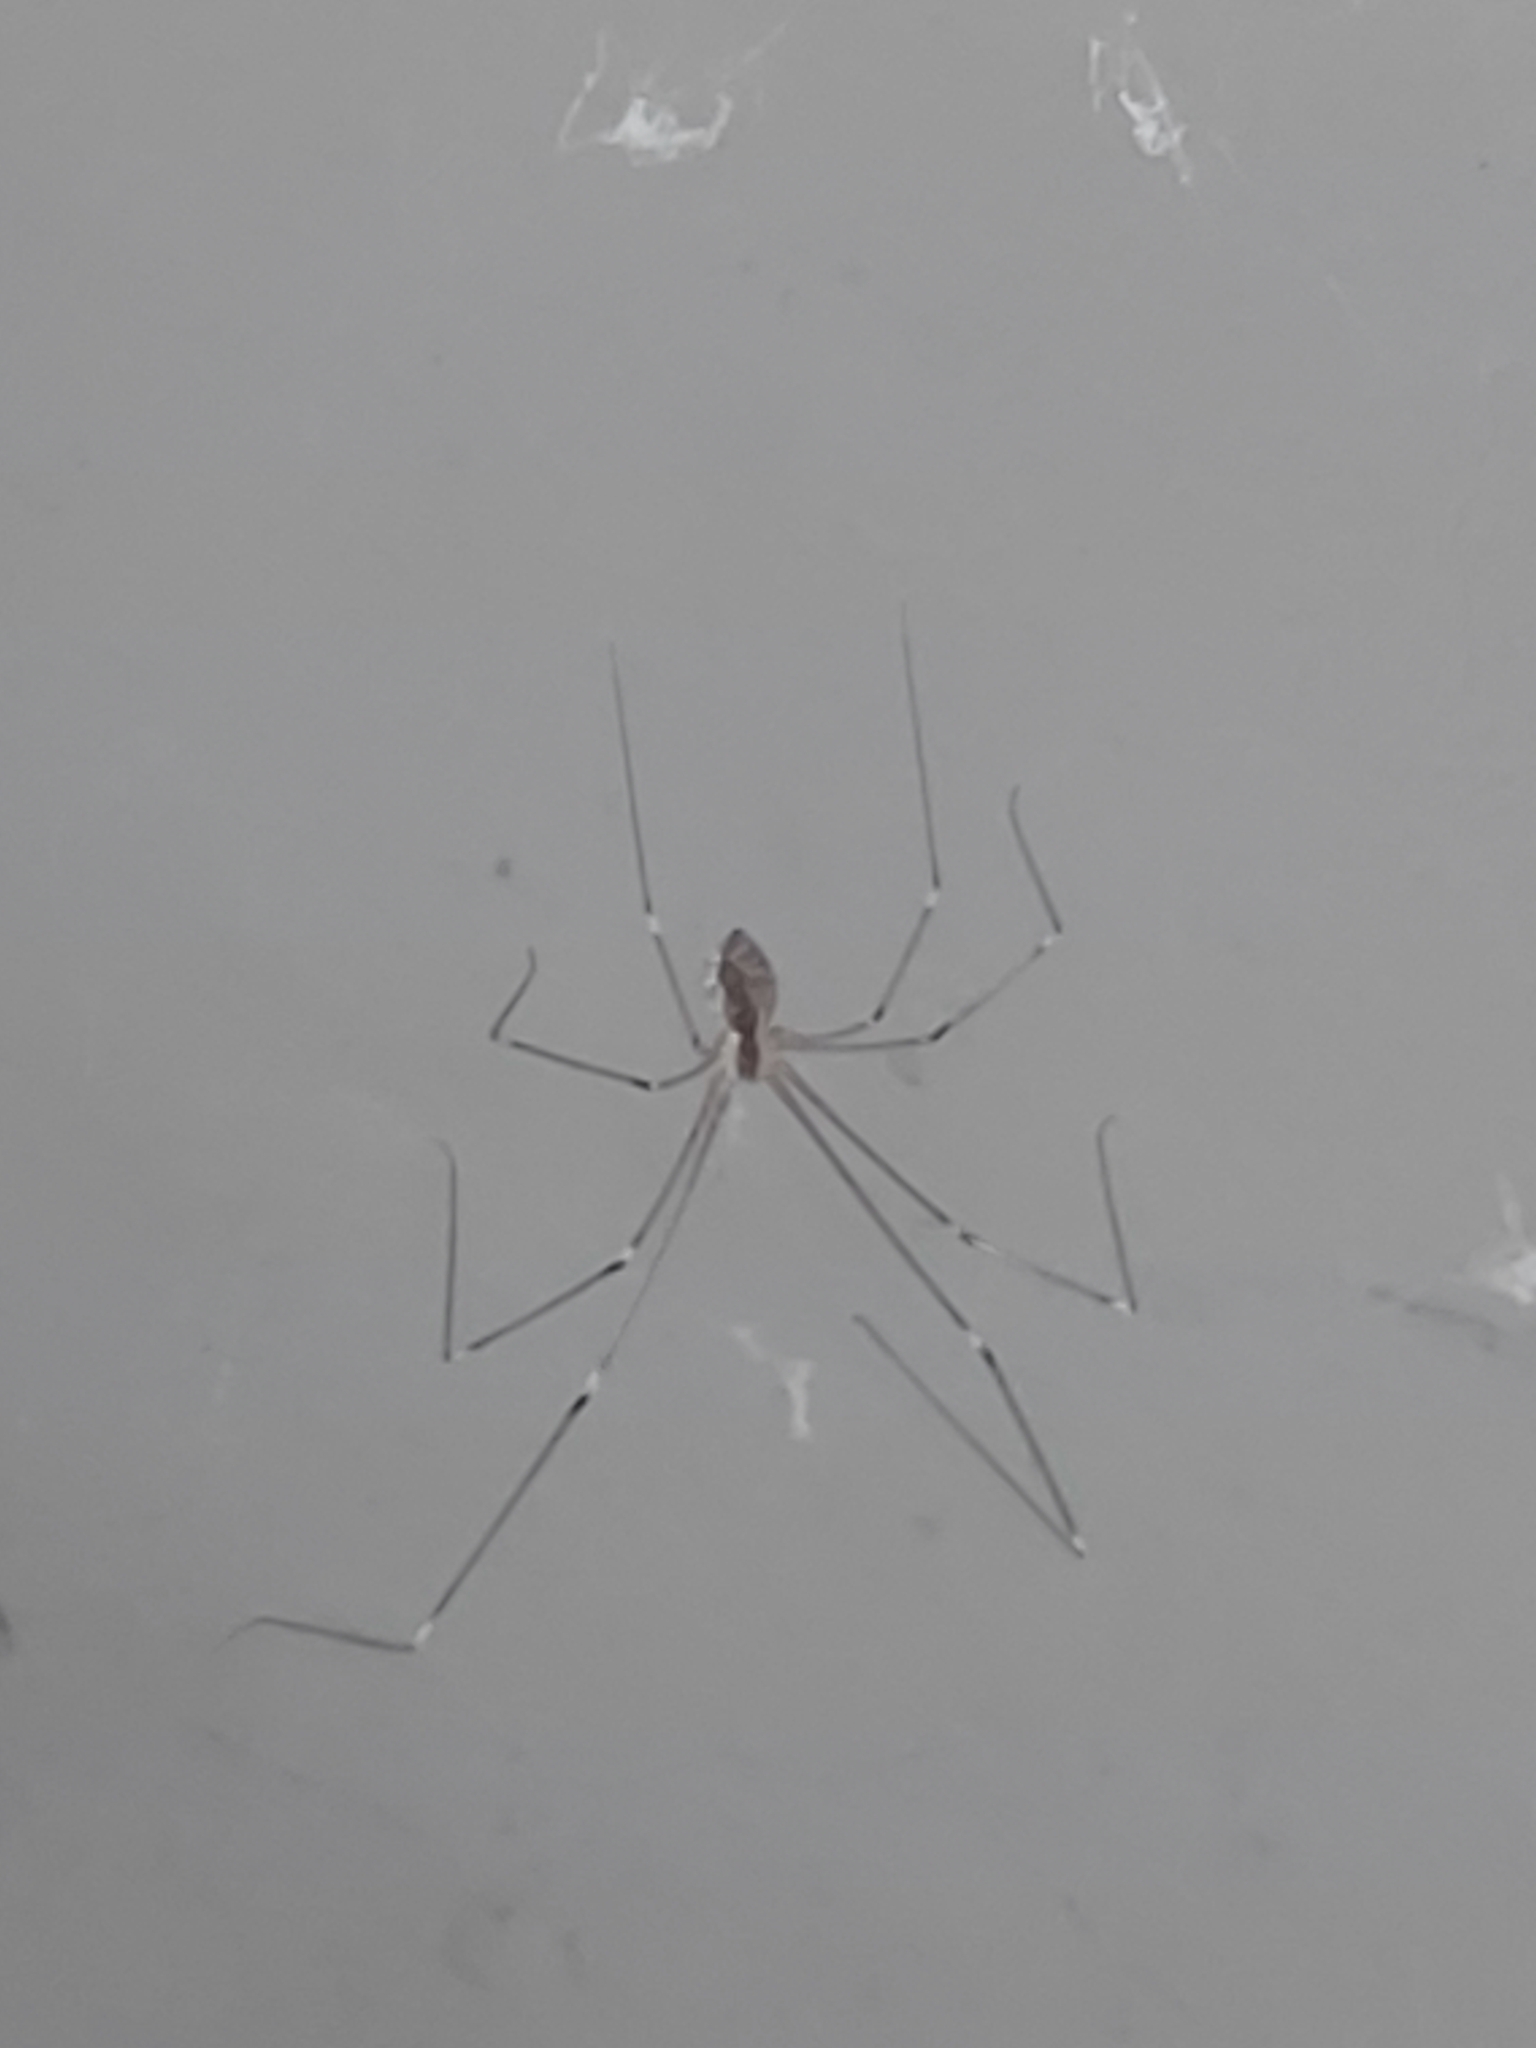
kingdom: Animalia
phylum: Arthropoda
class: Arachnida
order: Araneae
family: Pholcidae
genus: Crossopriza
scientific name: Crossopriza lyoni
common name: Cellar spiders
